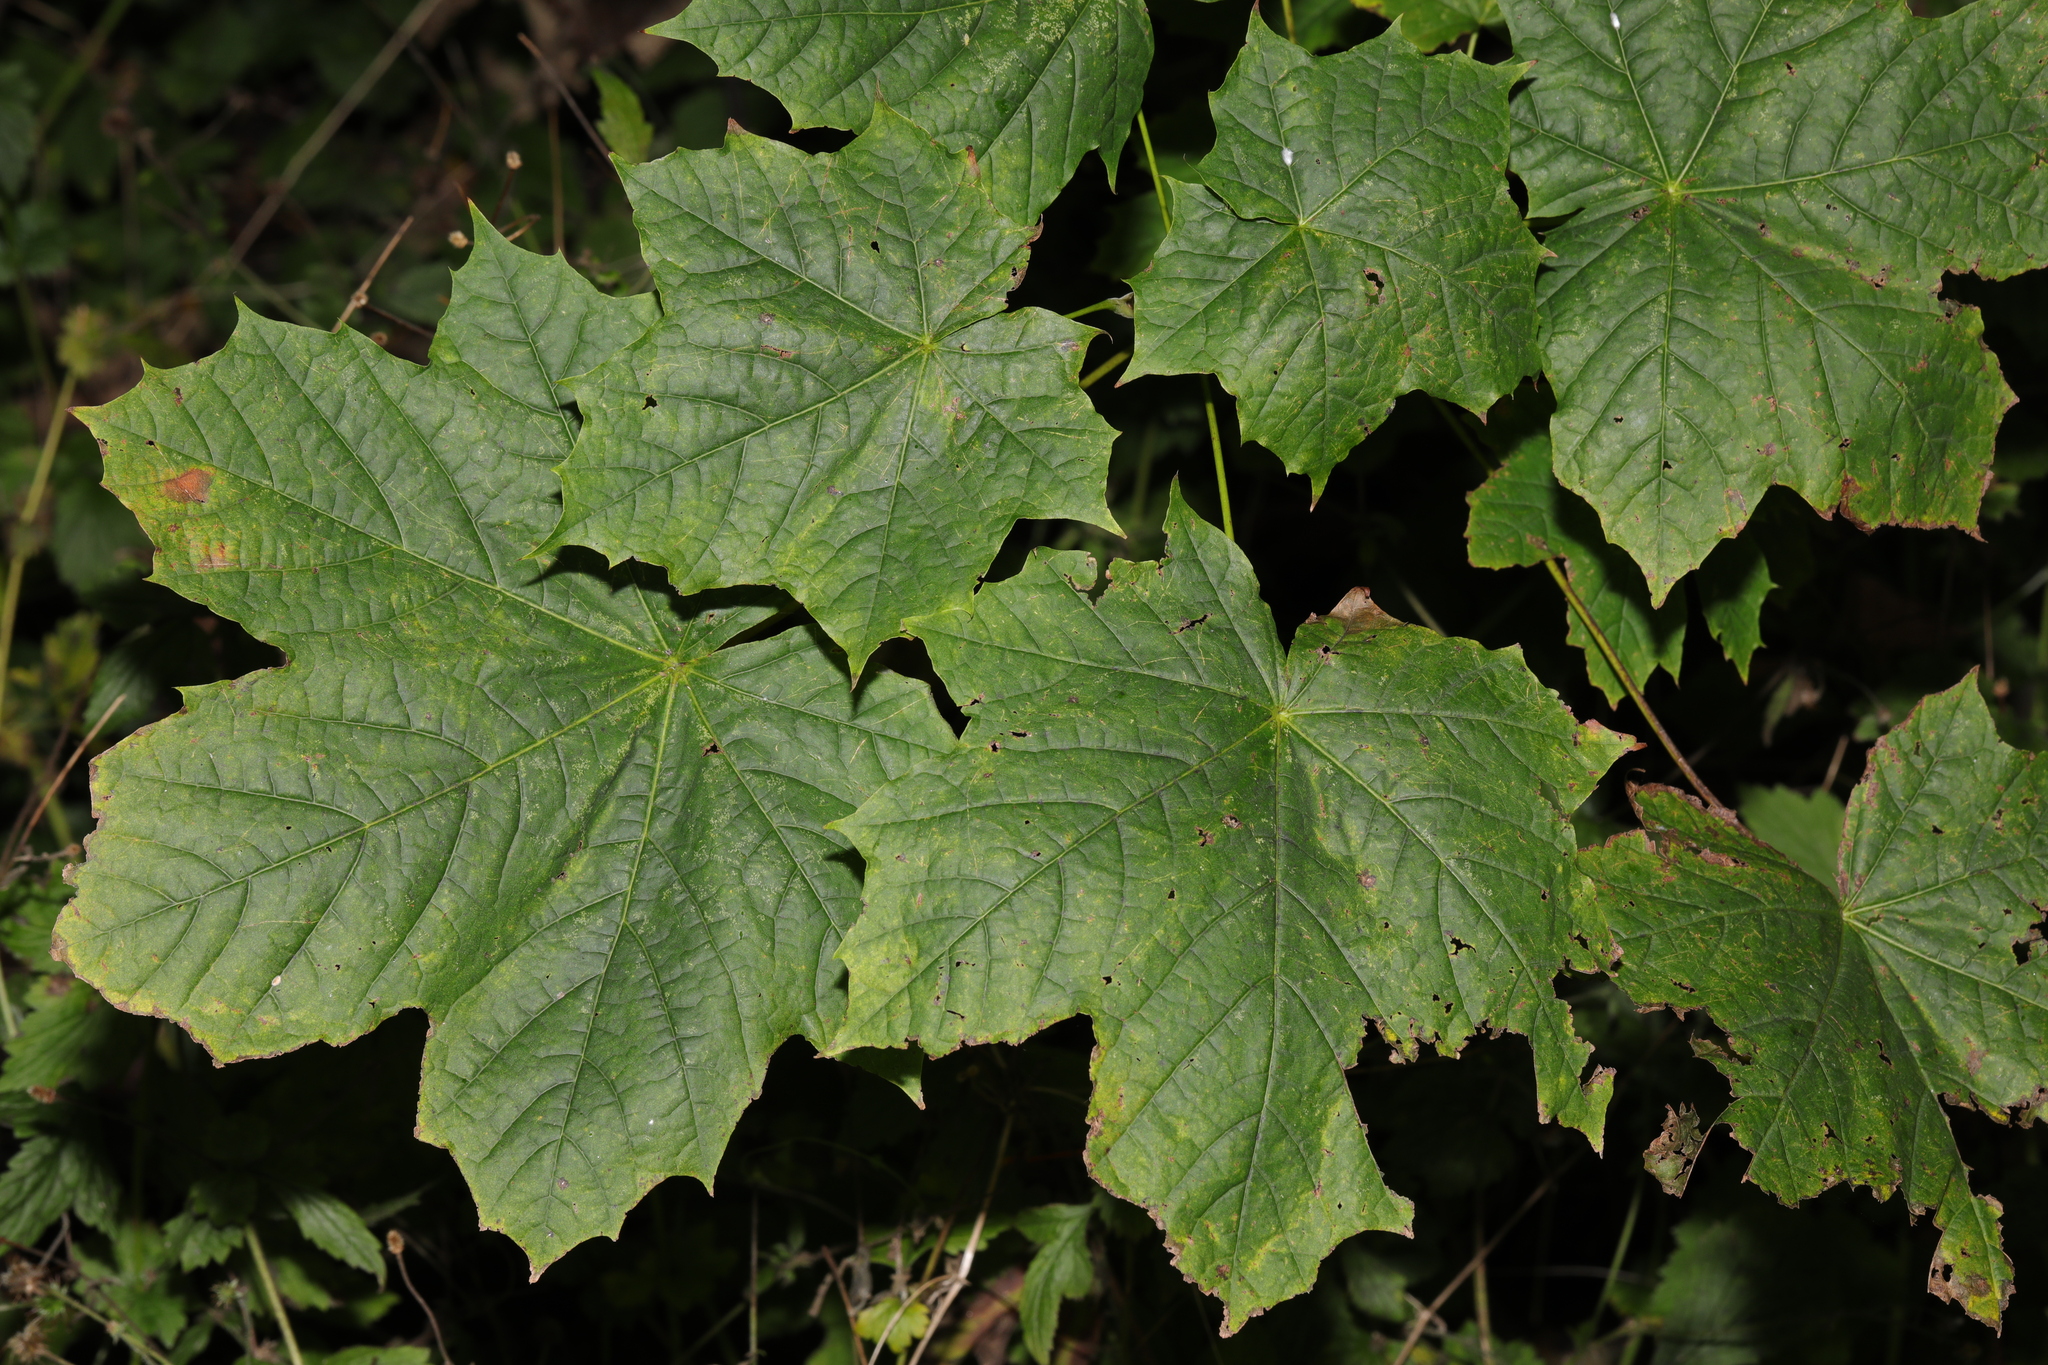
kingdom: Plantae
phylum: Tracheophyta
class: Magnoliopsida
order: Sapindales
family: Sapindaceae
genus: Acer
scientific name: Acer platanoides
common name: Norway maple
